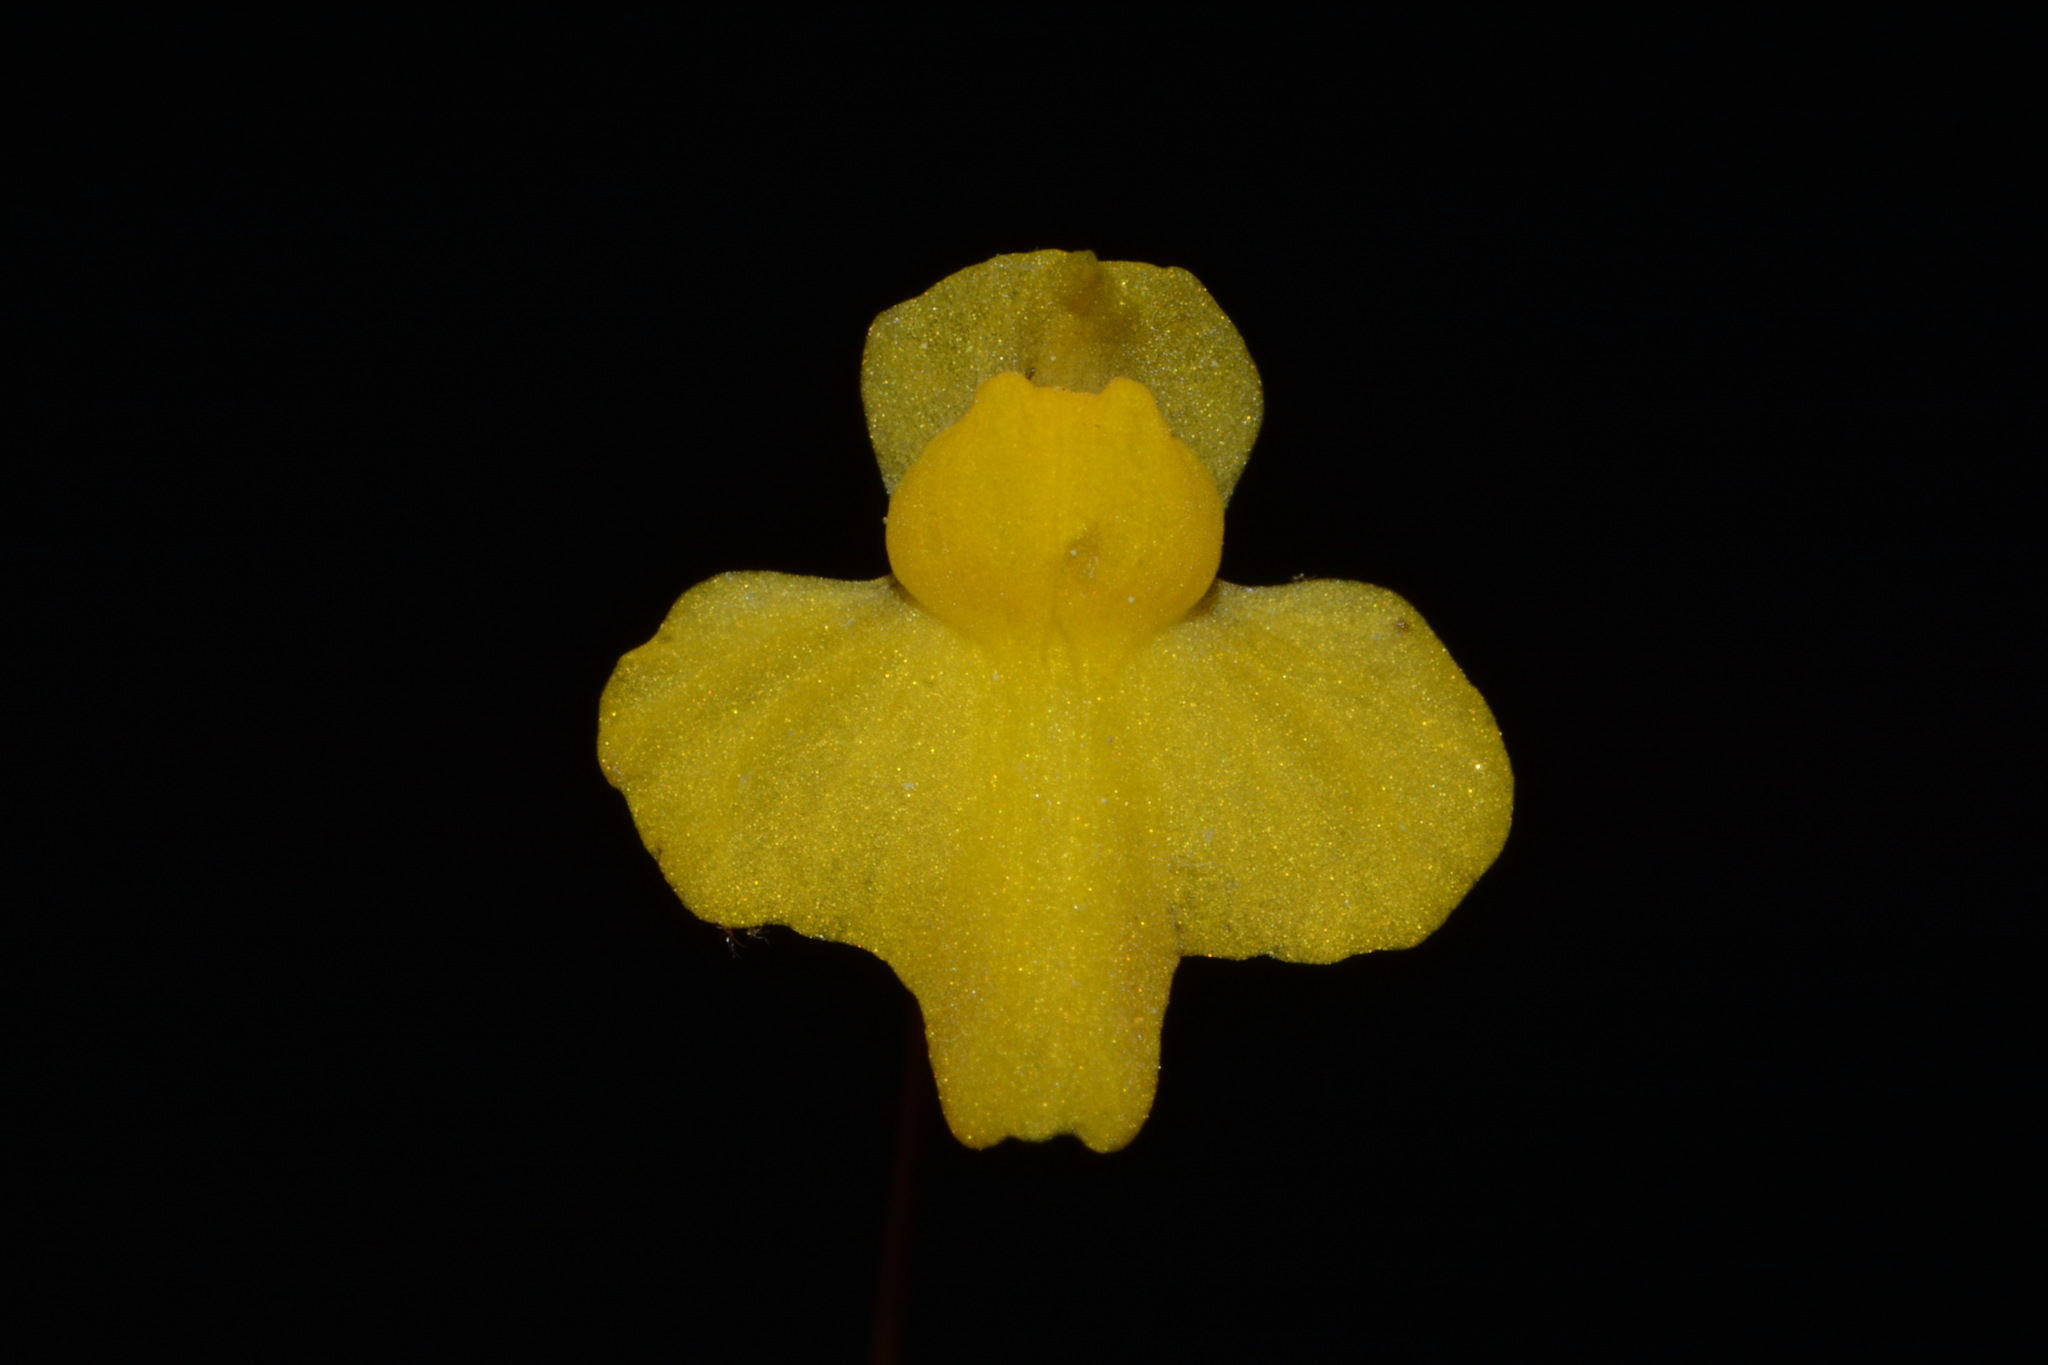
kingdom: Plantae
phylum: Tracheophyta
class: Magnoliopsida
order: Lamiales
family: Lentibulariaceae
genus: Utricularia
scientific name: Utricularia subulata
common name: Tiny bladderwort
